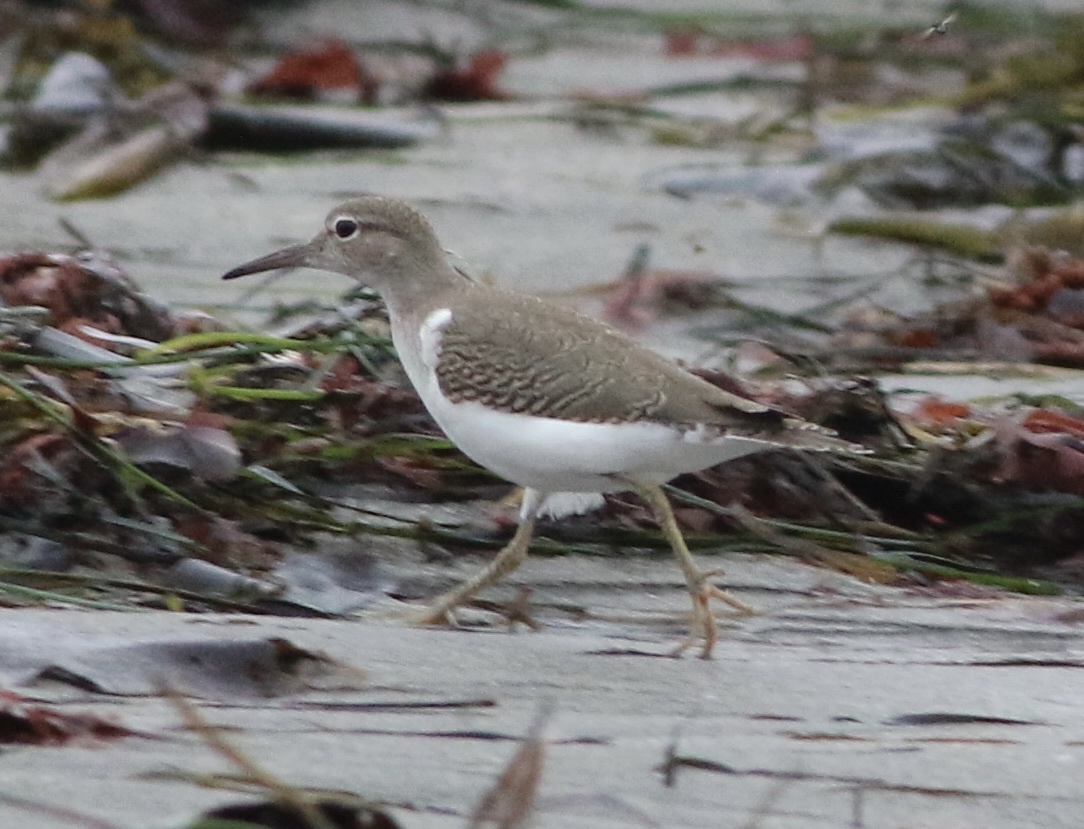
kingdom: Animalia
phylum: Chordata
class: Aves
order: Charadriiformes
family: Scolopacidae
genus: Actitis
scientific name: Actitis macularius
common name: Spotted sandpiper
